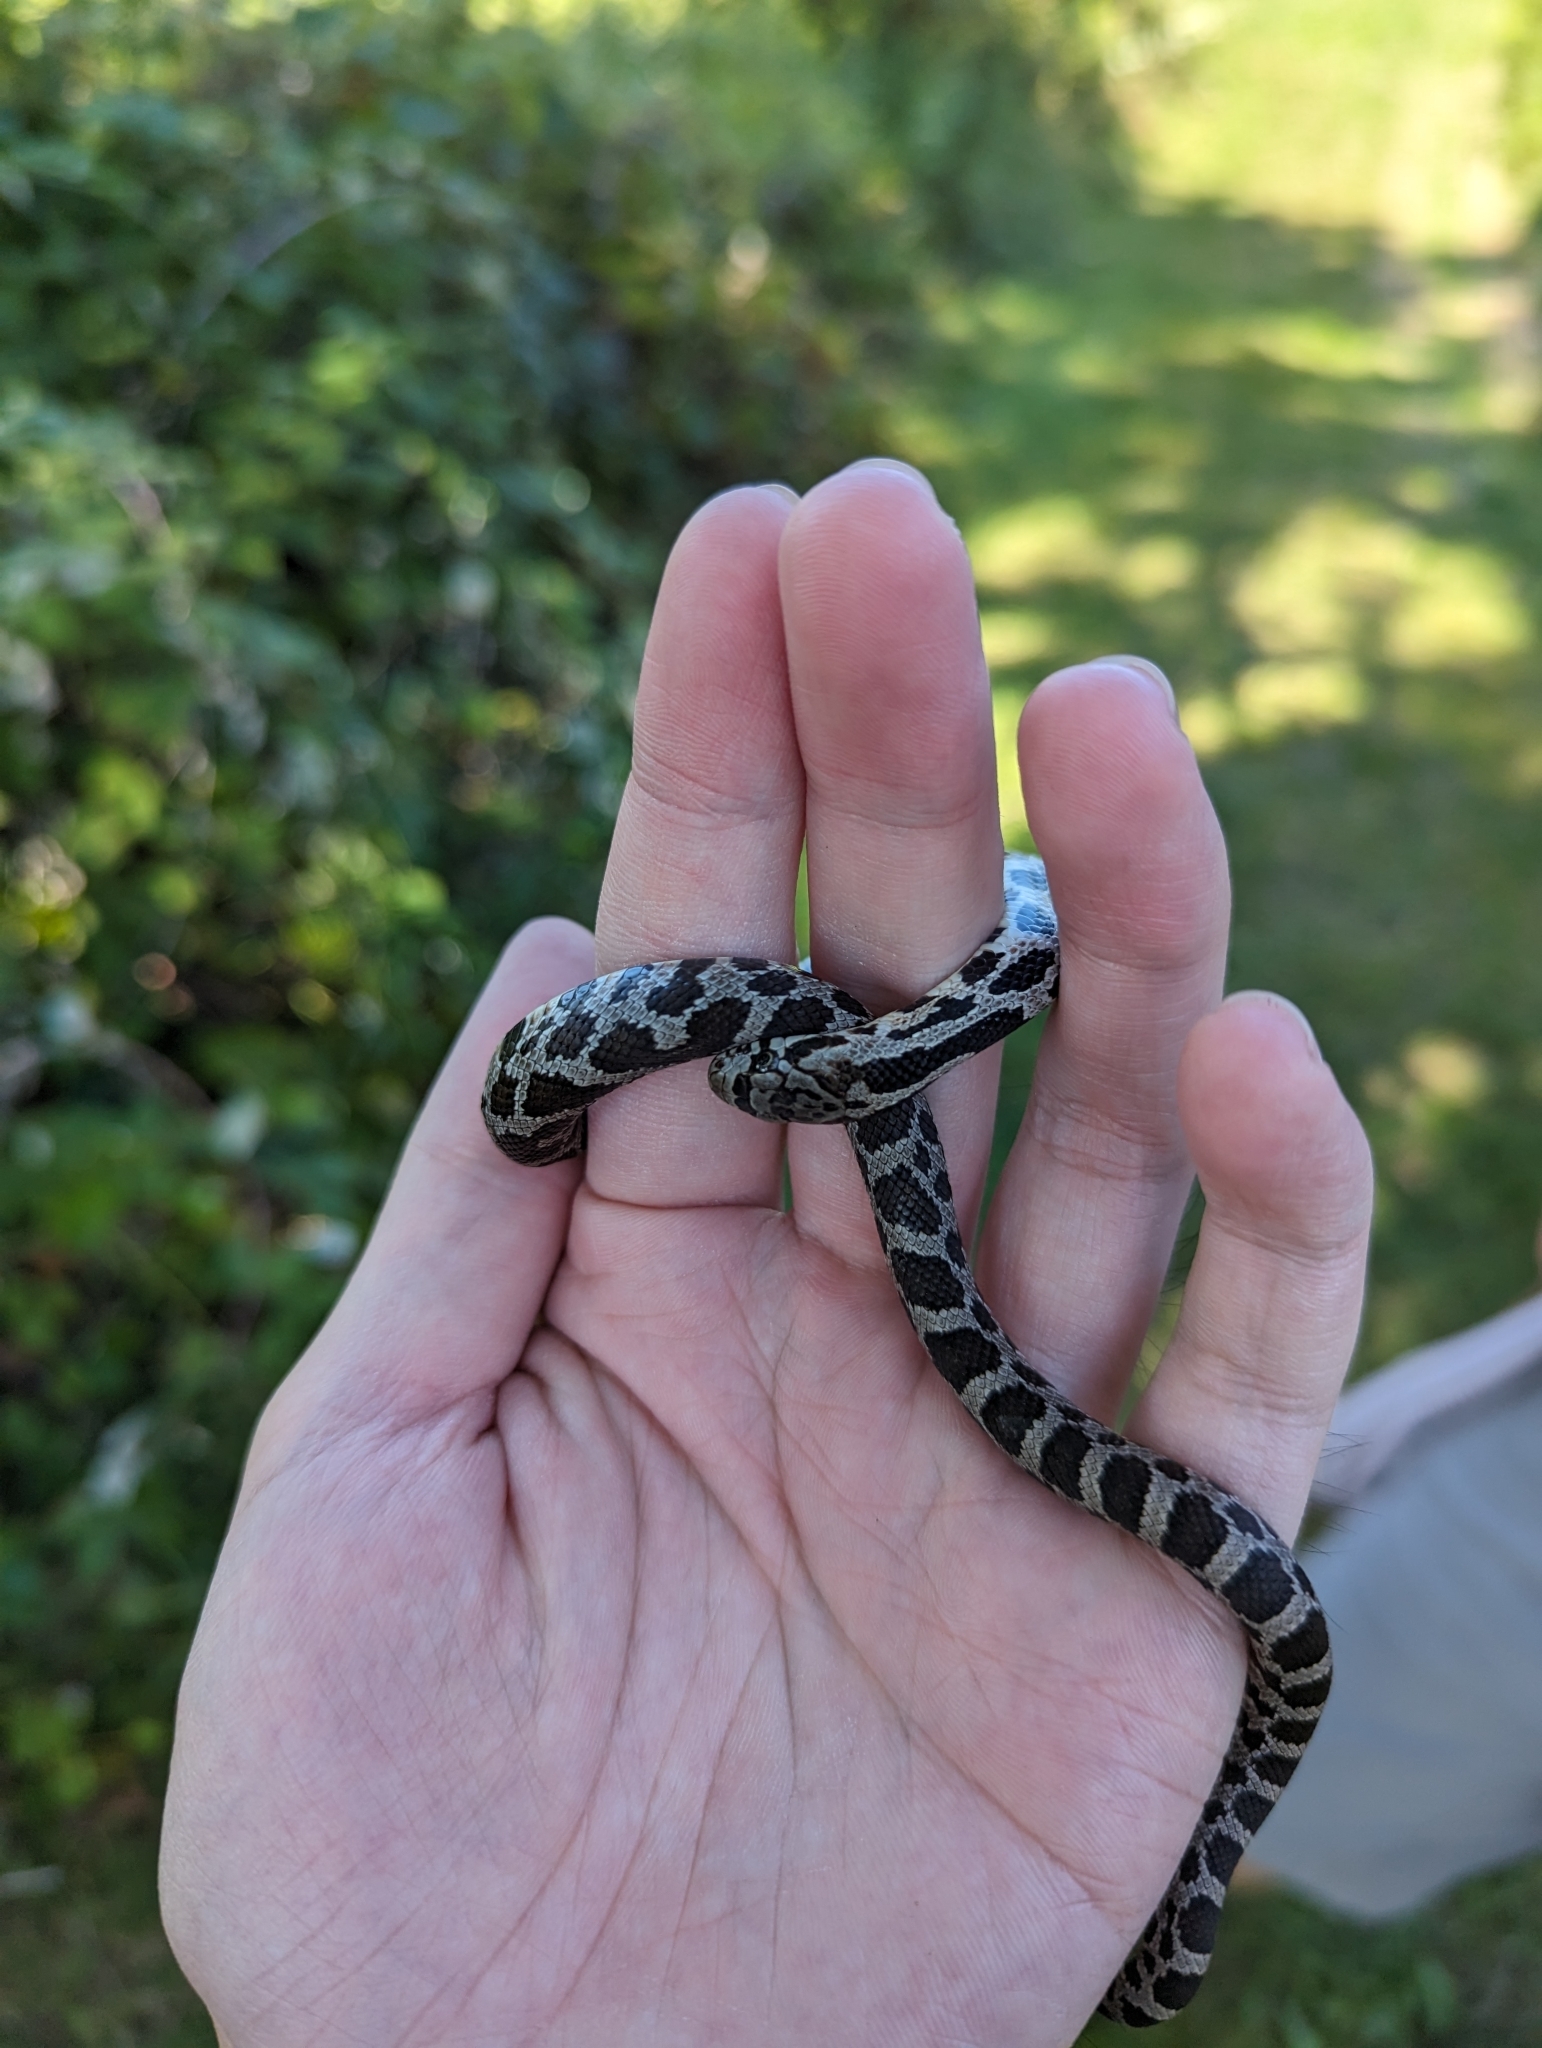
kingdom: Animalia
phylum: Chordata
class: Squamata
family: Colubridae
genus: Pantherophis
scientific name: Pantherophis vulpinus
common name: Eastern fox snake
